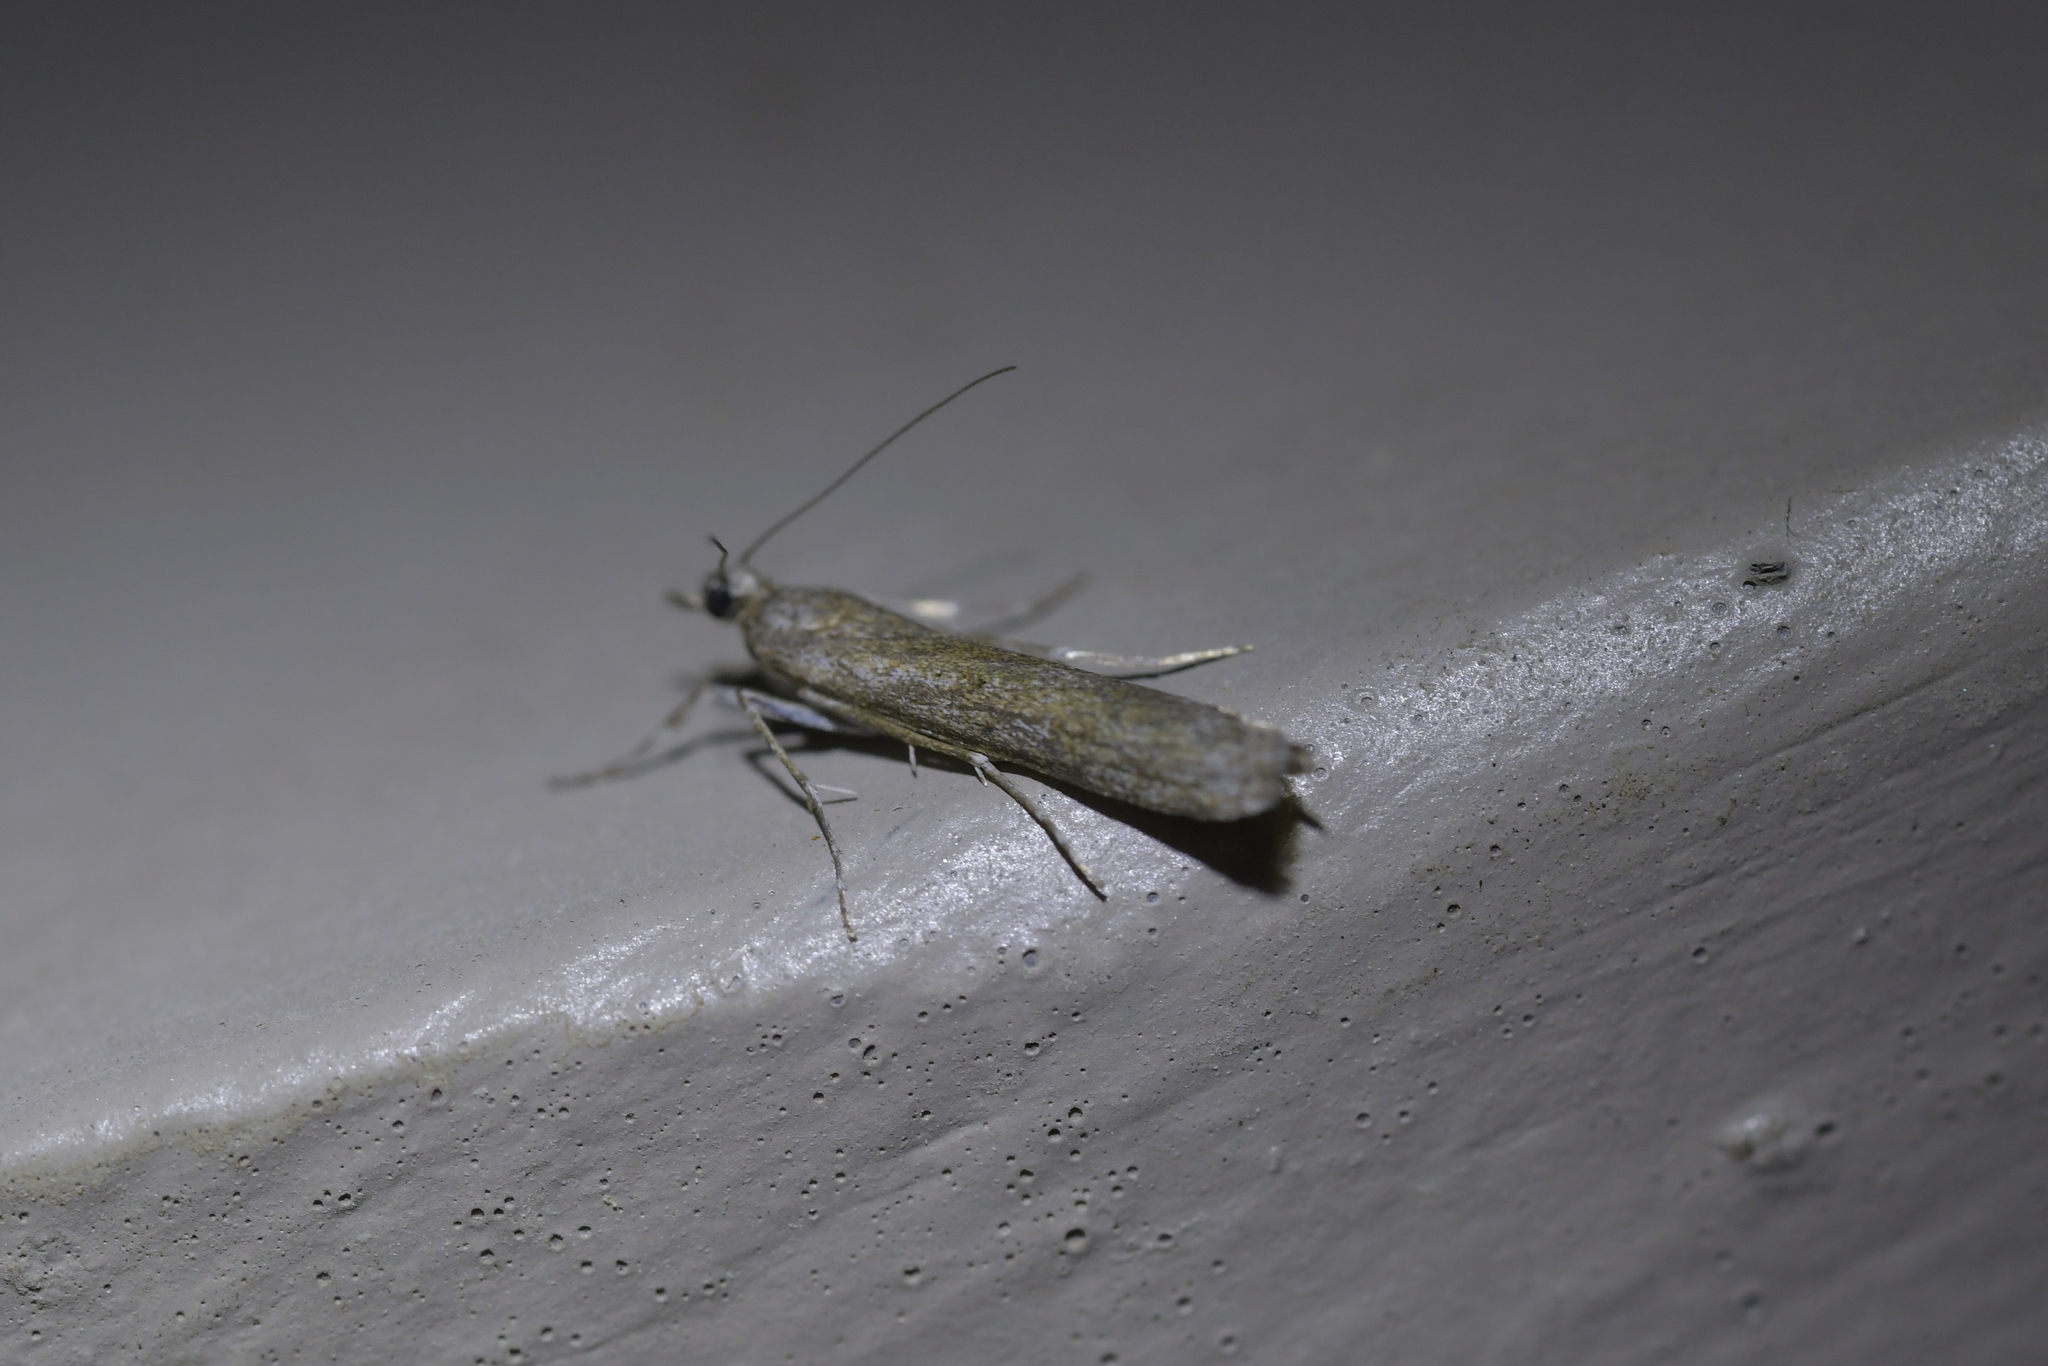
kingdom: Animalia
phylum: Arthropoda
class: Insecta
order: Lepidoptera
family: Crambidae
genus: Eudonia
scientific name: Eudonia leptalea
